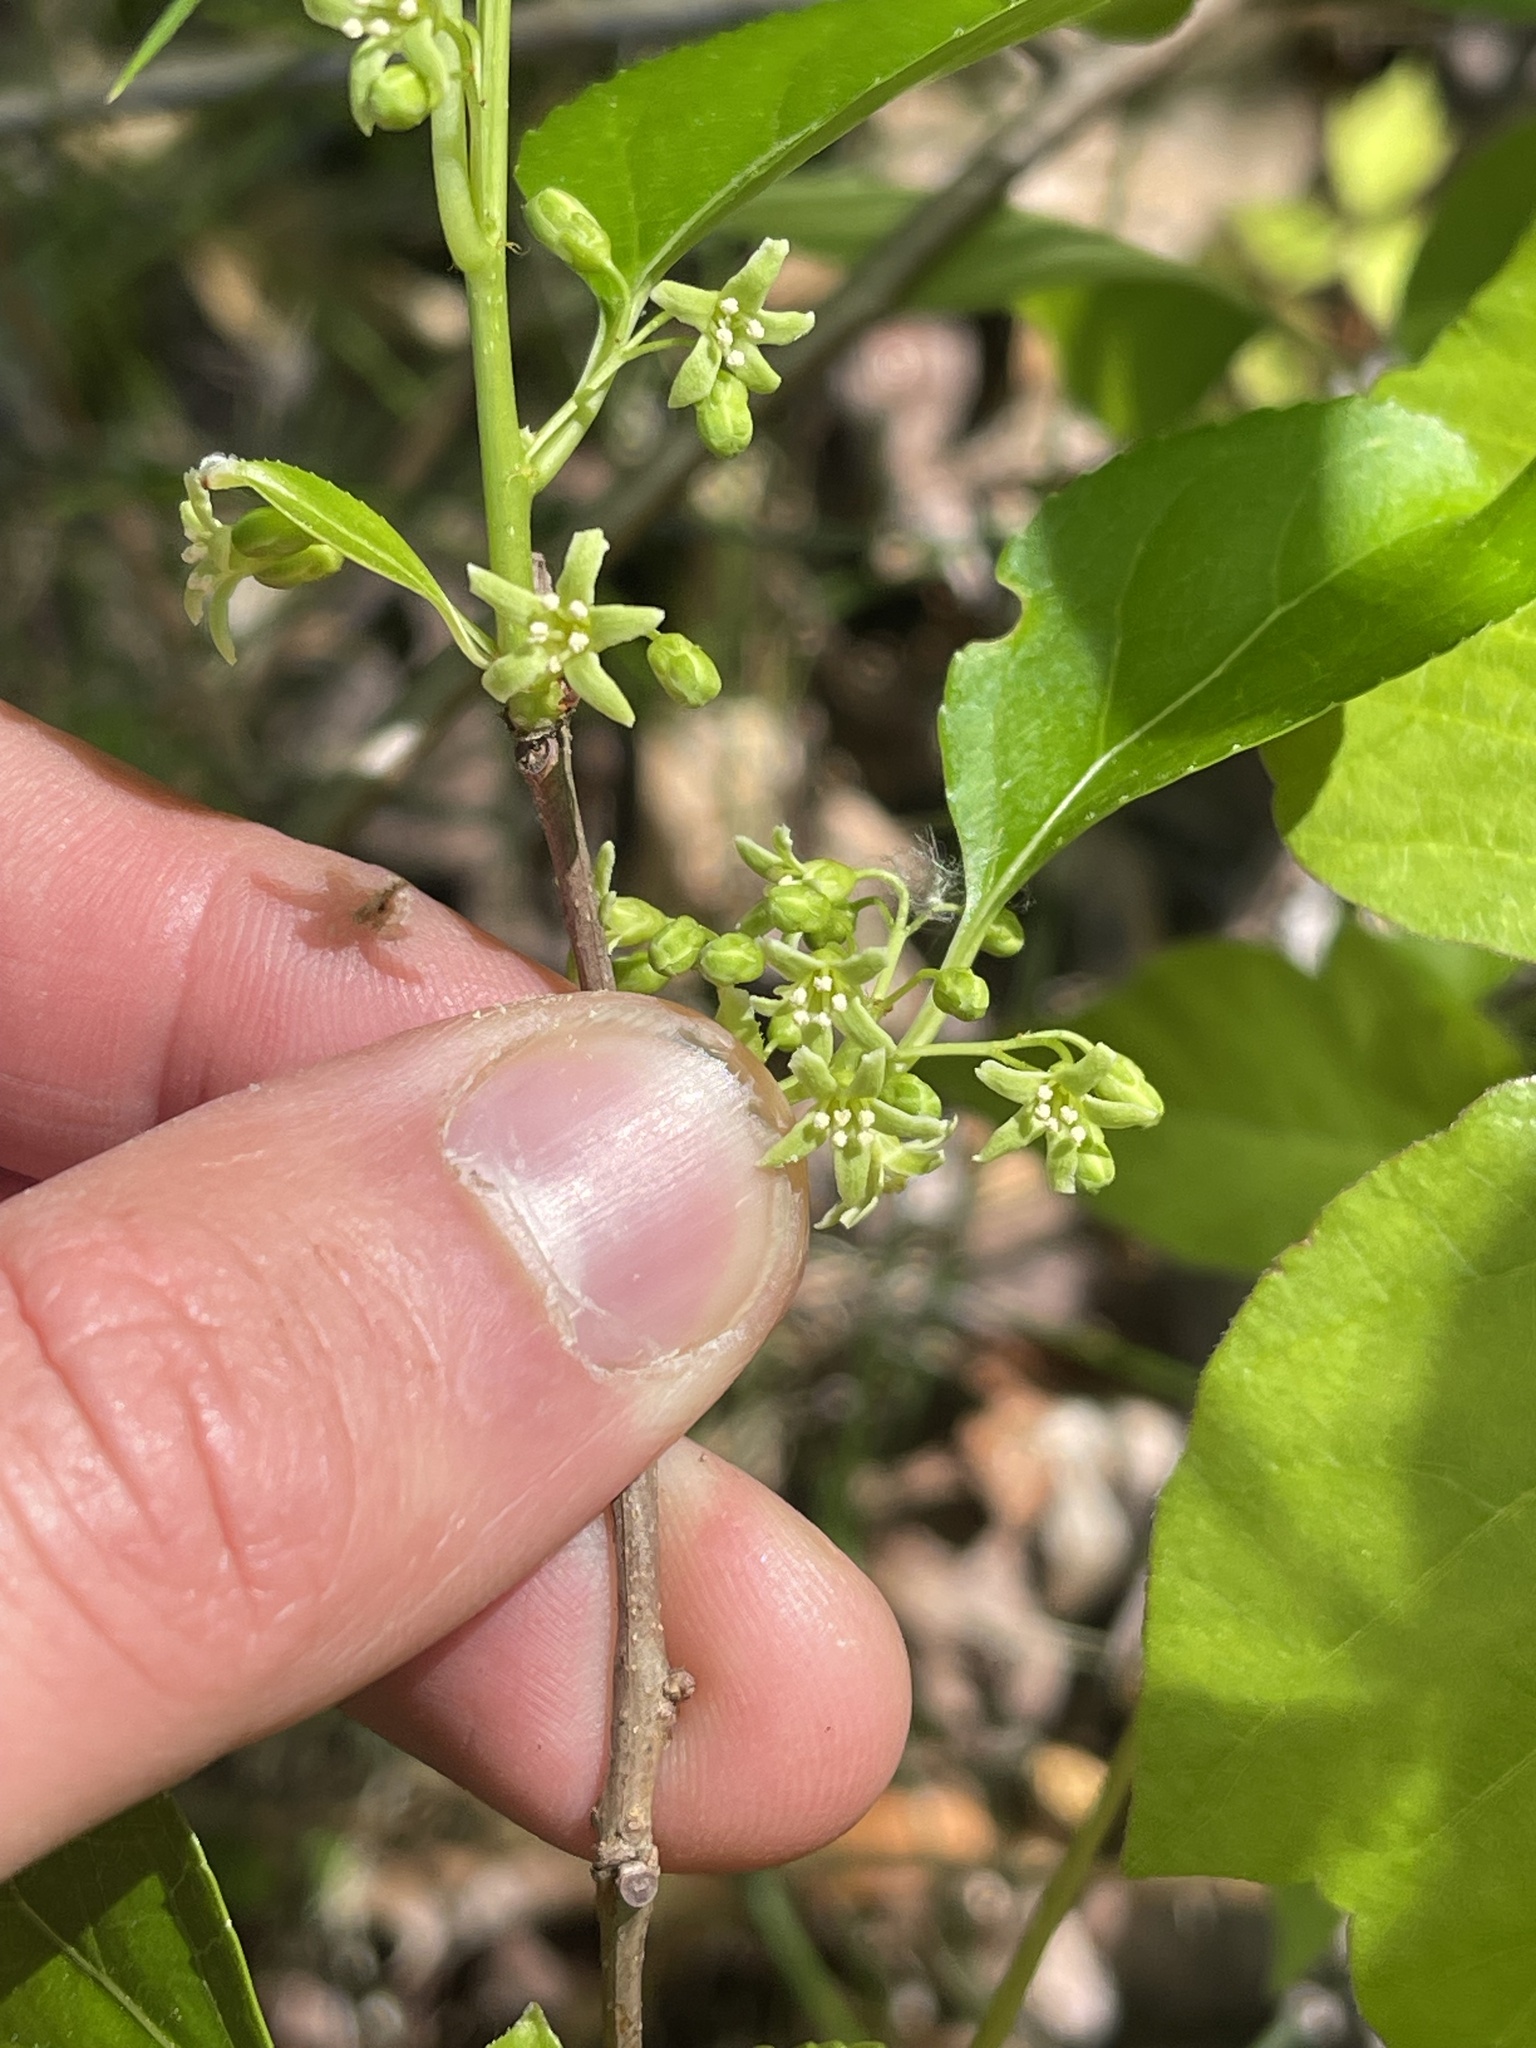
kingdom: Plantae
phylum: Tracheophyta
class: Magnoliopsida
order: Celastrales
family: Celastraceae
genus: Celastrus
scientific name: Celastrus orbiculatus
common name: Oriental bittersweet
